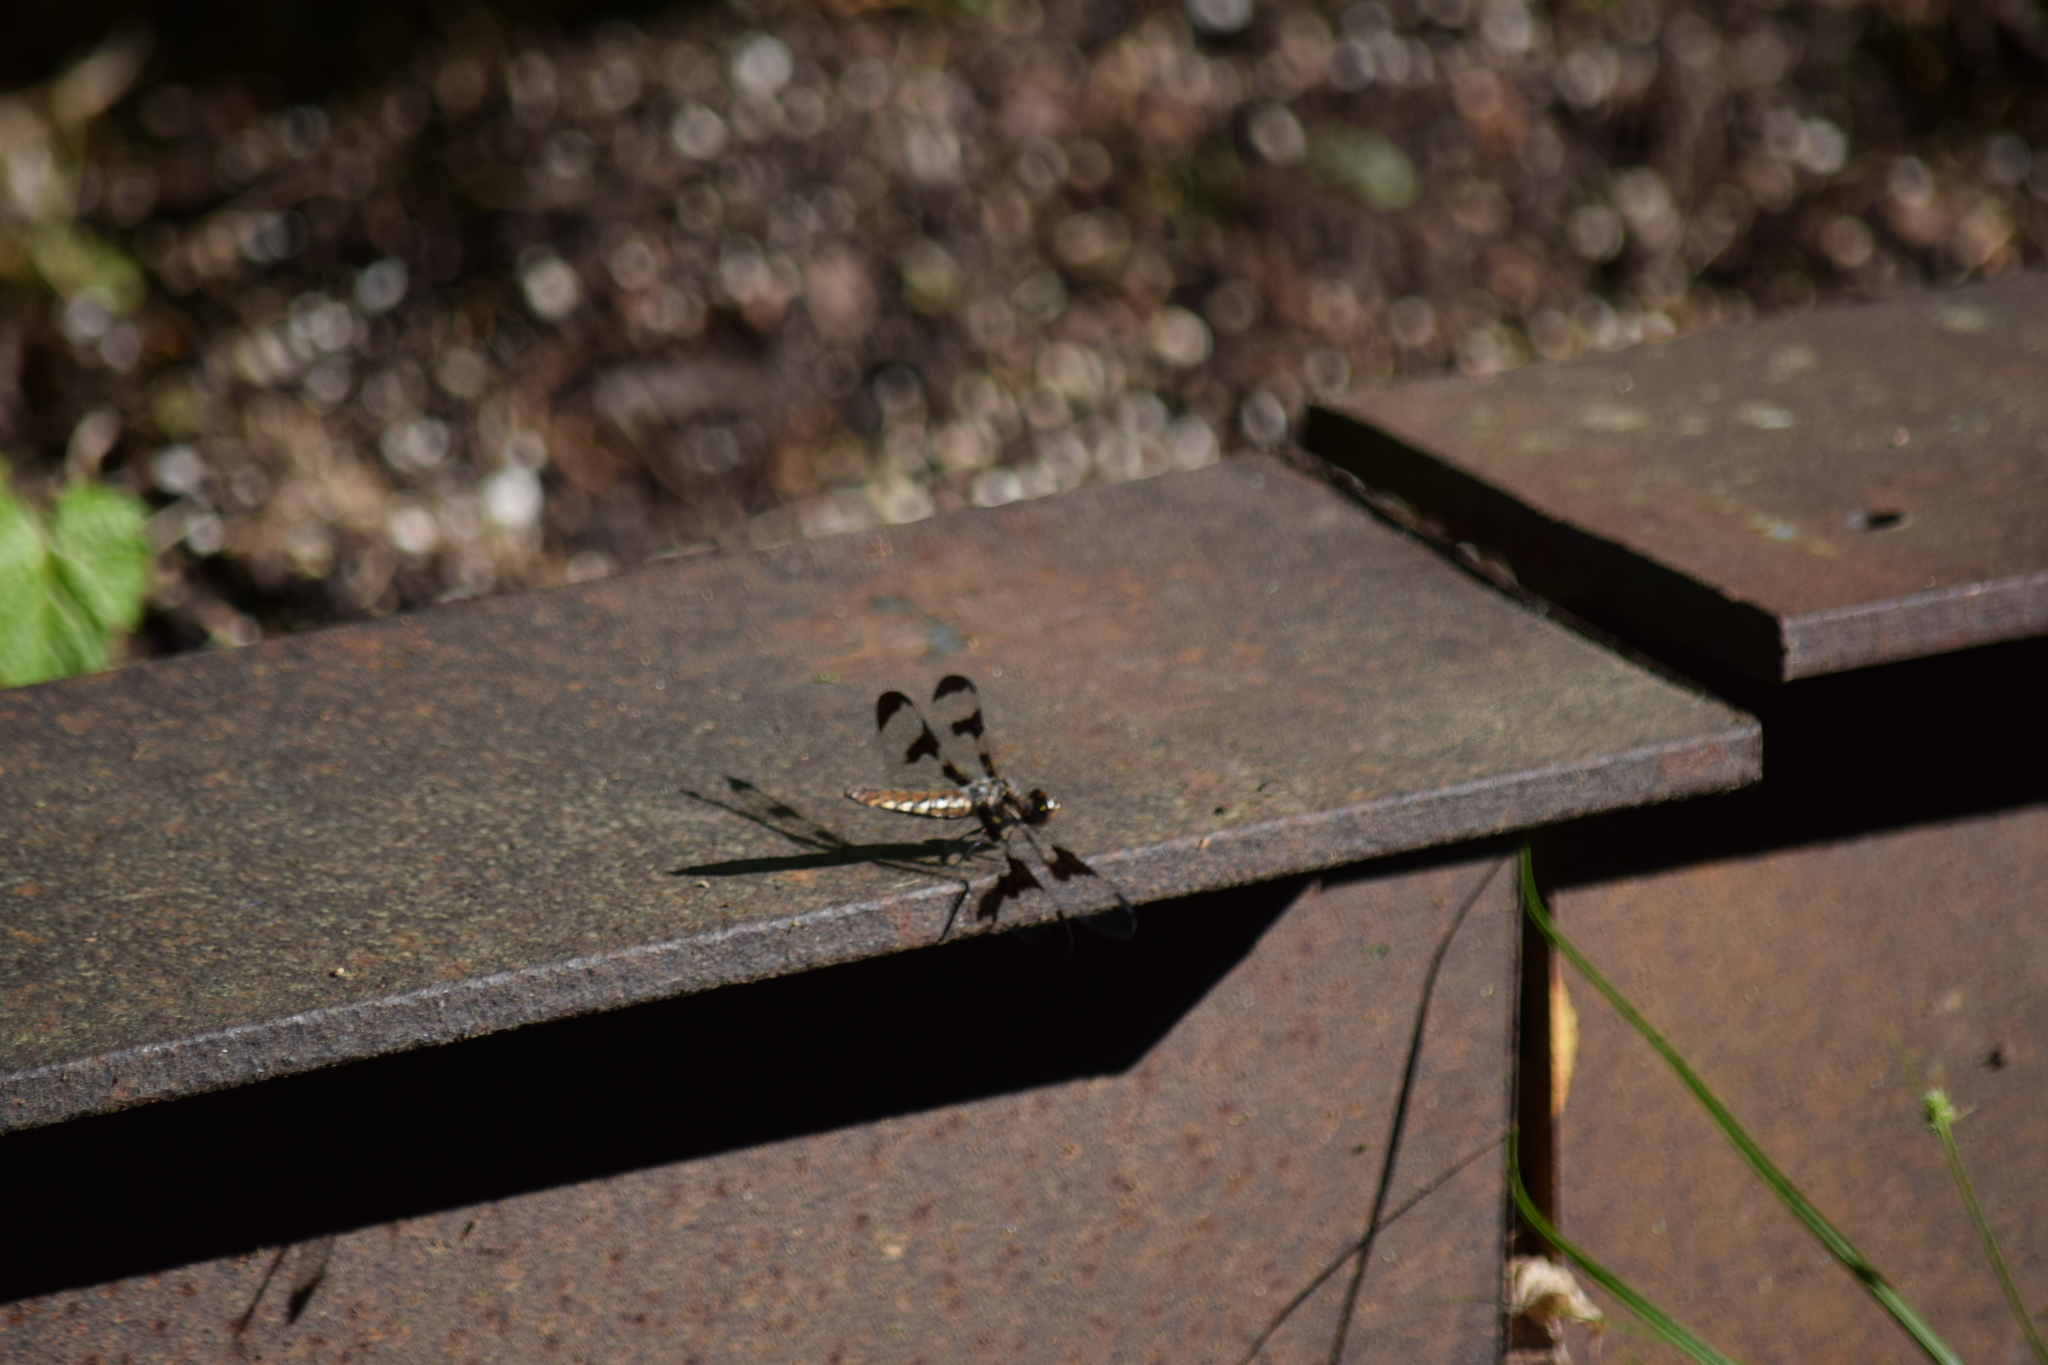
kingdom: Animalia
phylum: Arthropoda
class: Insecta
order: Odonata
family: Libellulidae
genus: Plathemis
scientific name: Plathemis lydia
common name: Common whitetail
